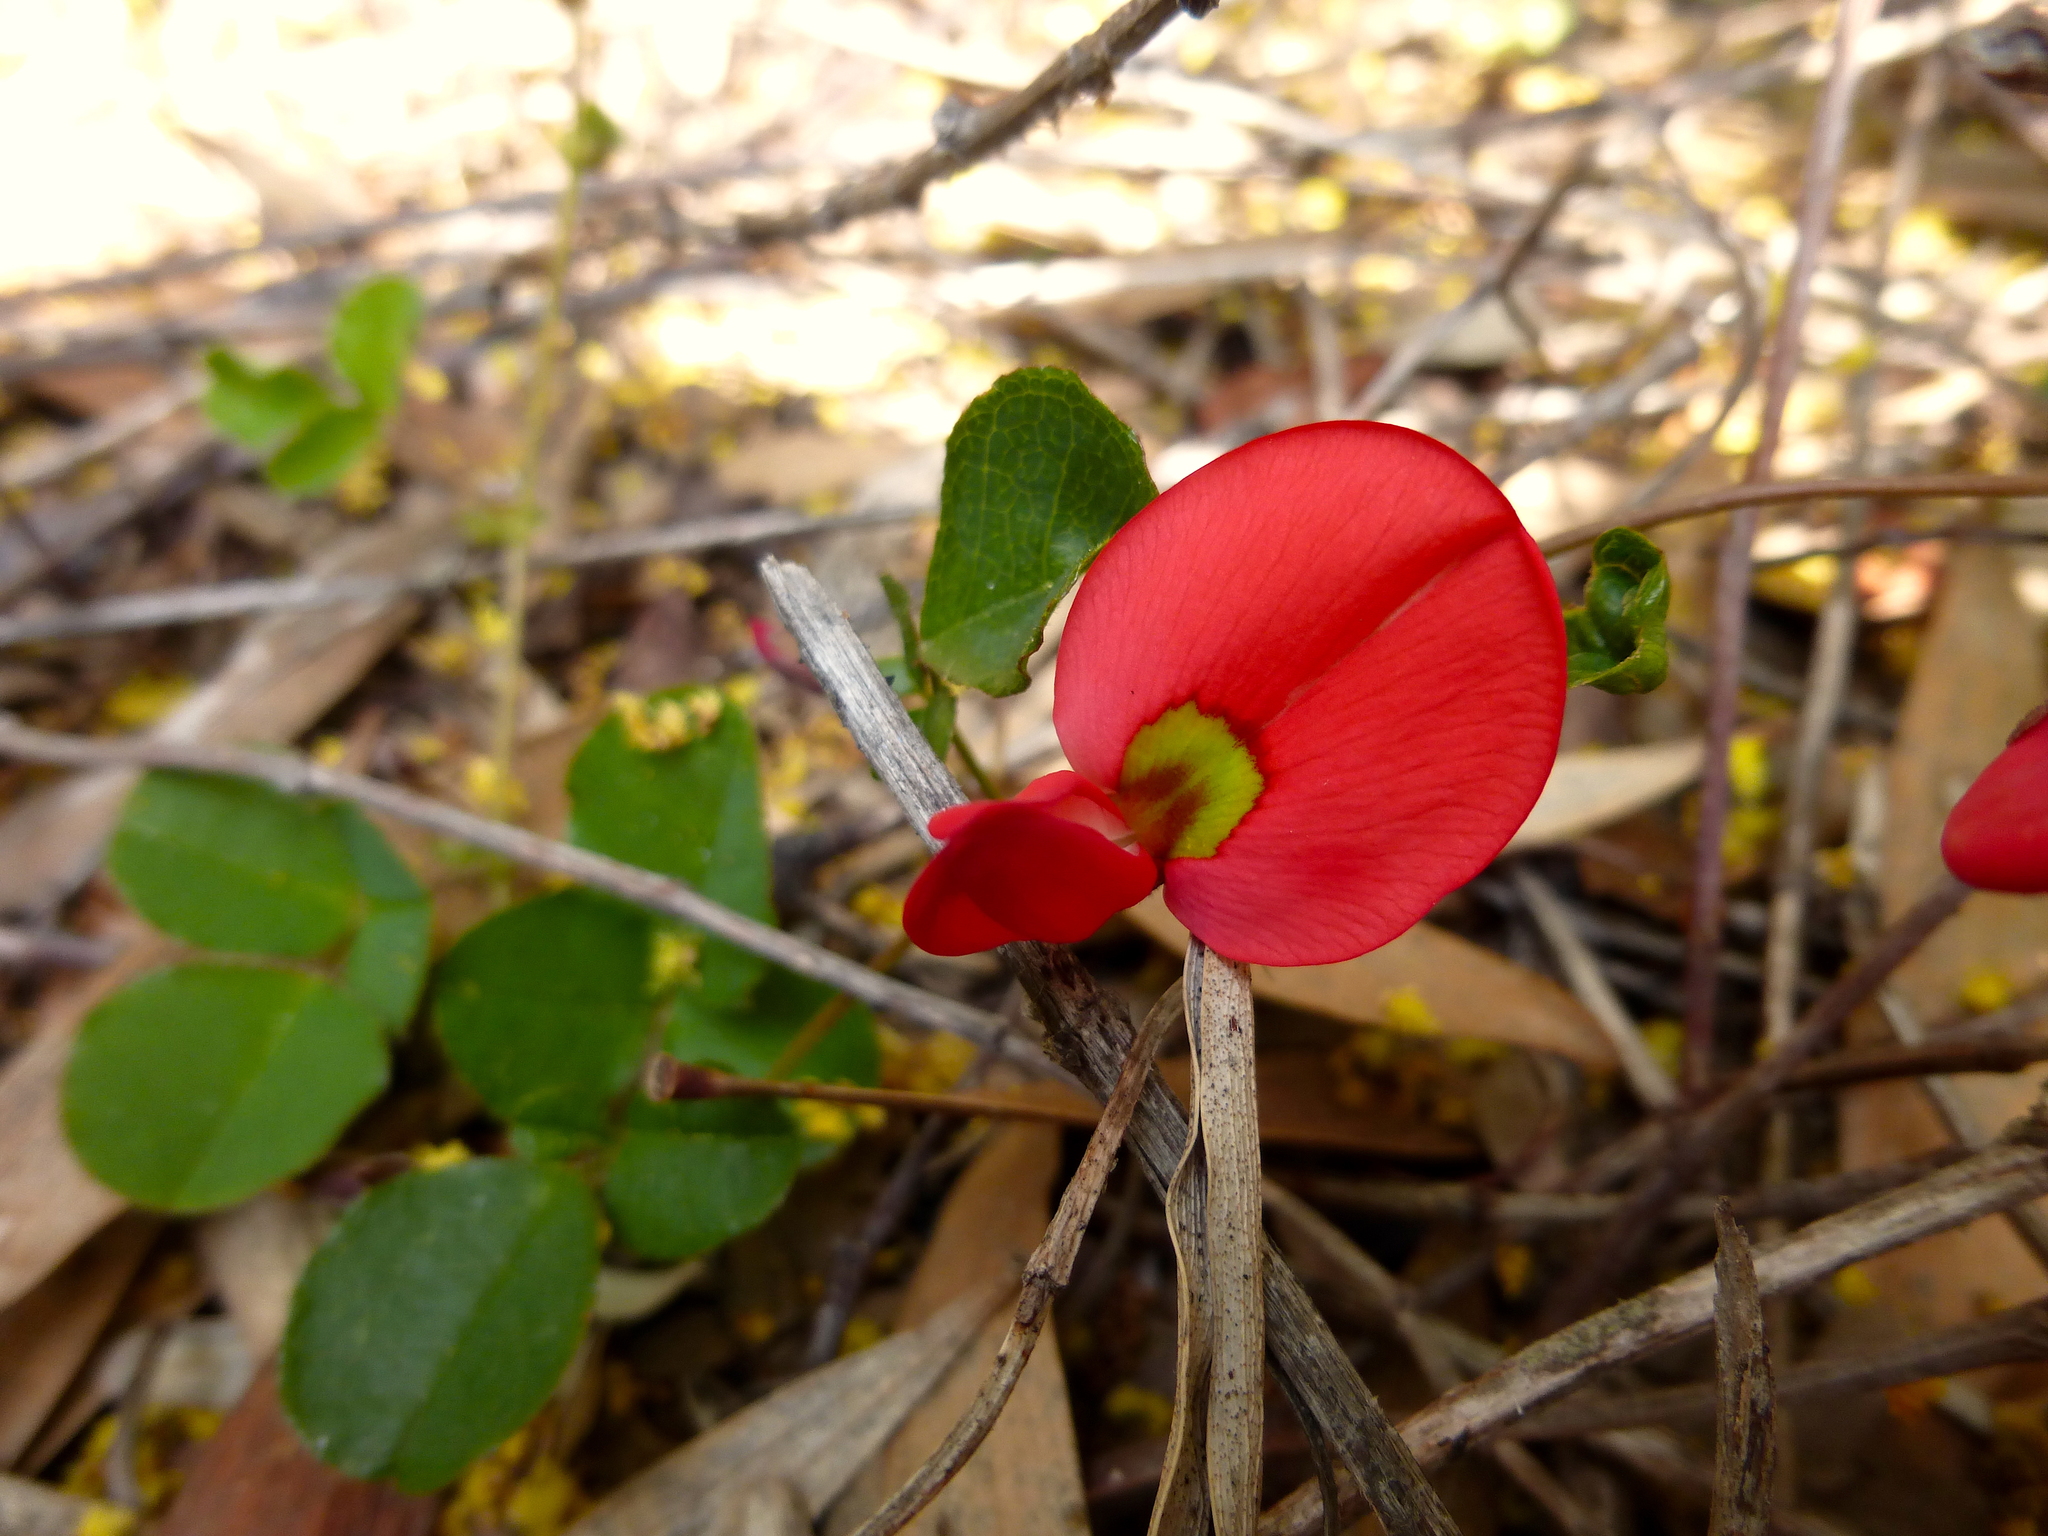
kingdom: Plantae
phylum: Tracheophyta
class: Magnoliopsida
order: Fabales
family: Fabaceae
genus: Kennedia
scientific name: Kennedia prostrata
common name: Running-postman
